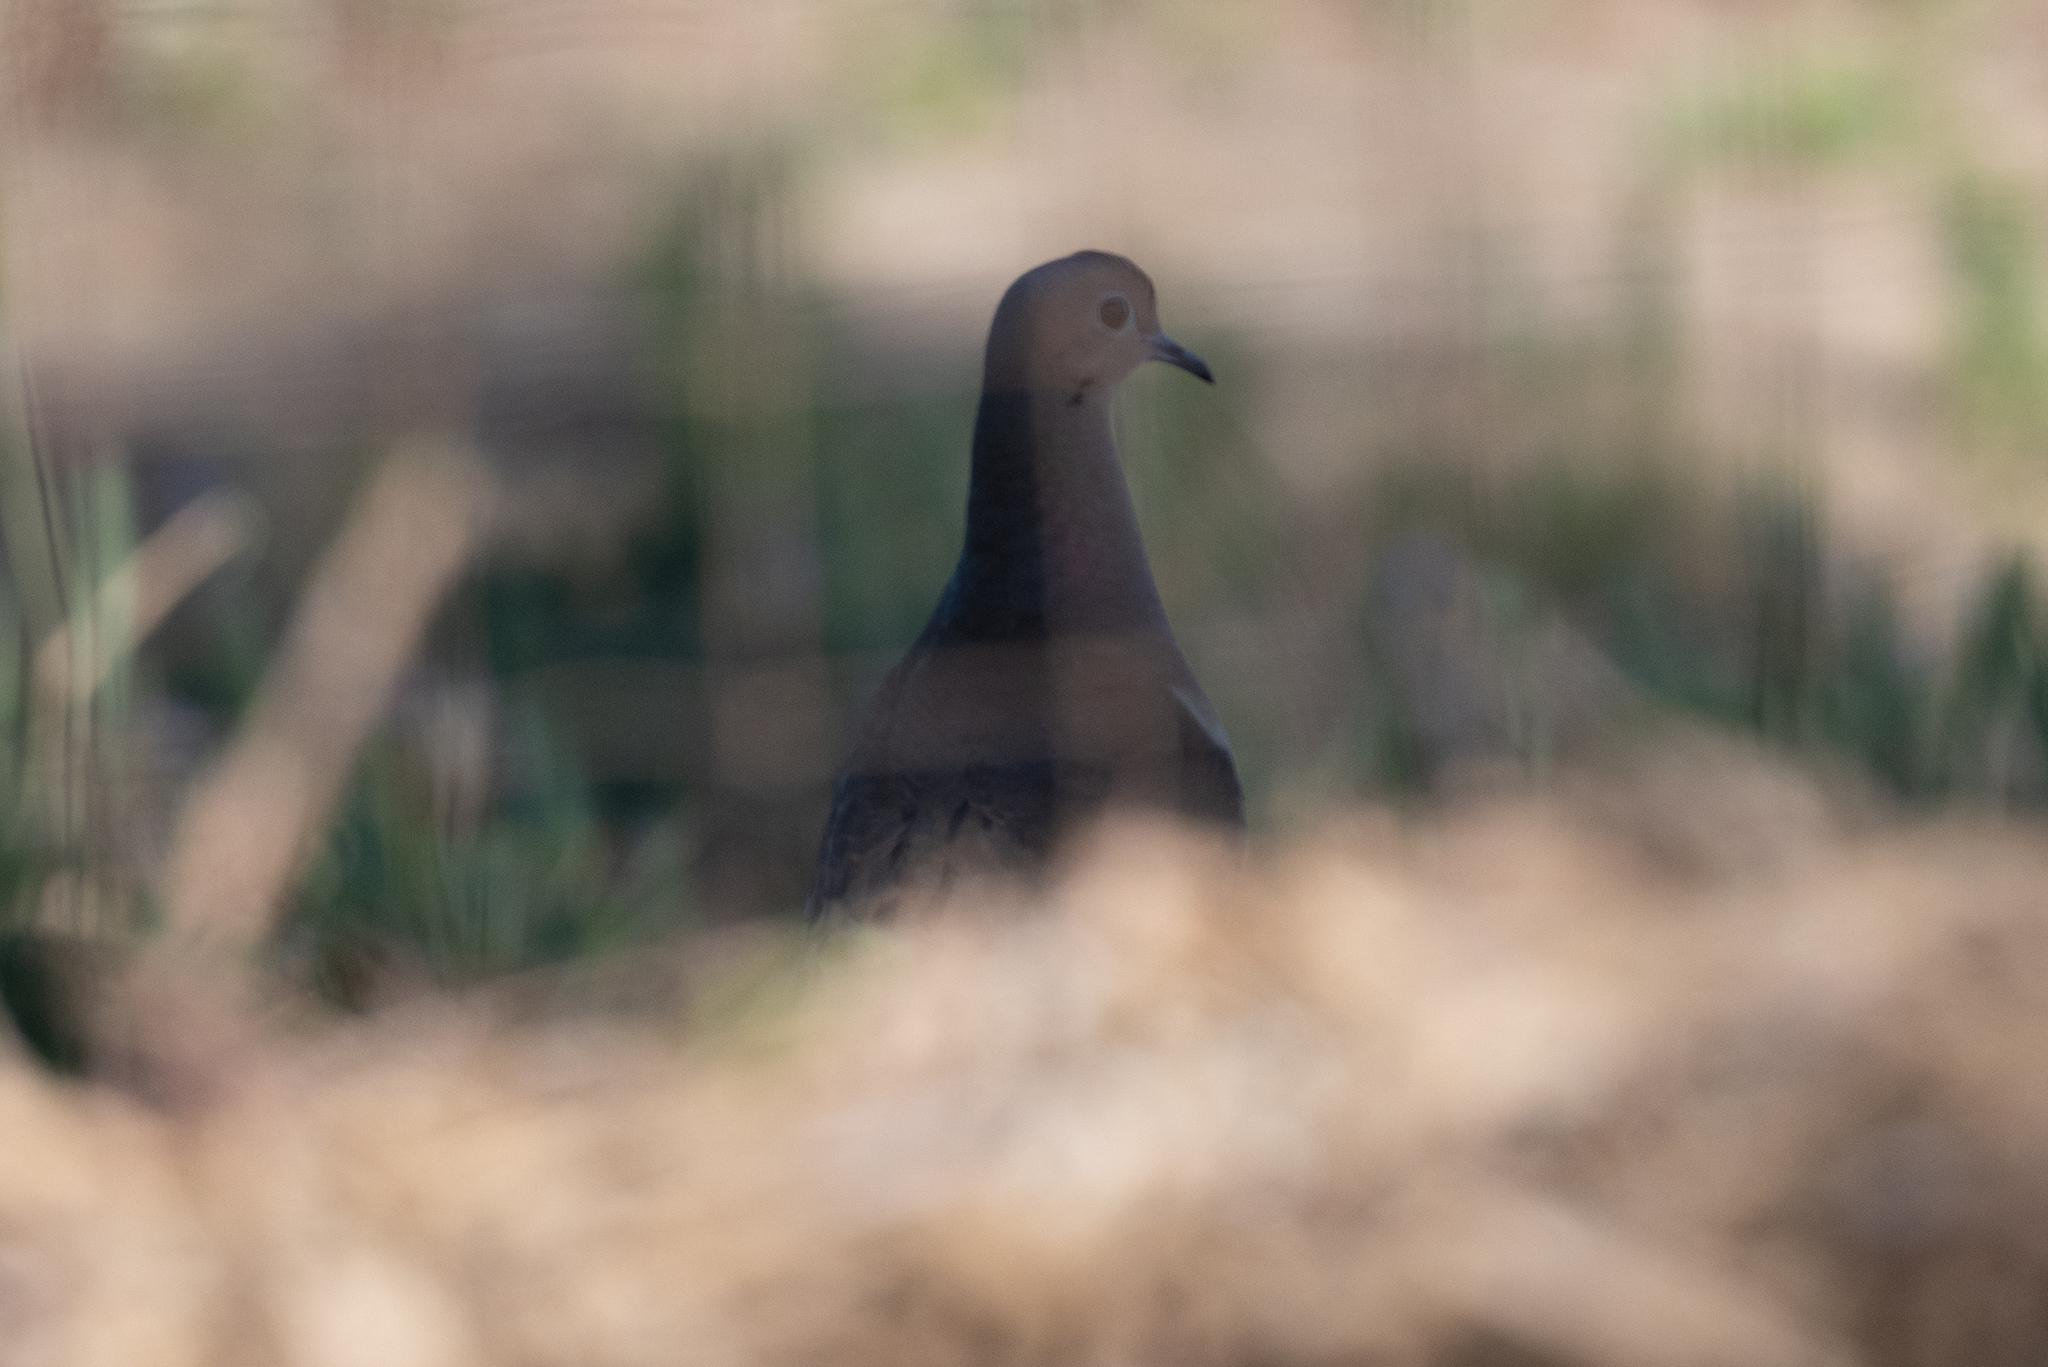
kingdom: Animalia
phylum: Chordata
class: Aves
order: Columbiformes
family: Columbidae
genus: Zenaida
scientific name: Zenaida macroura
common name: Mourning dove
